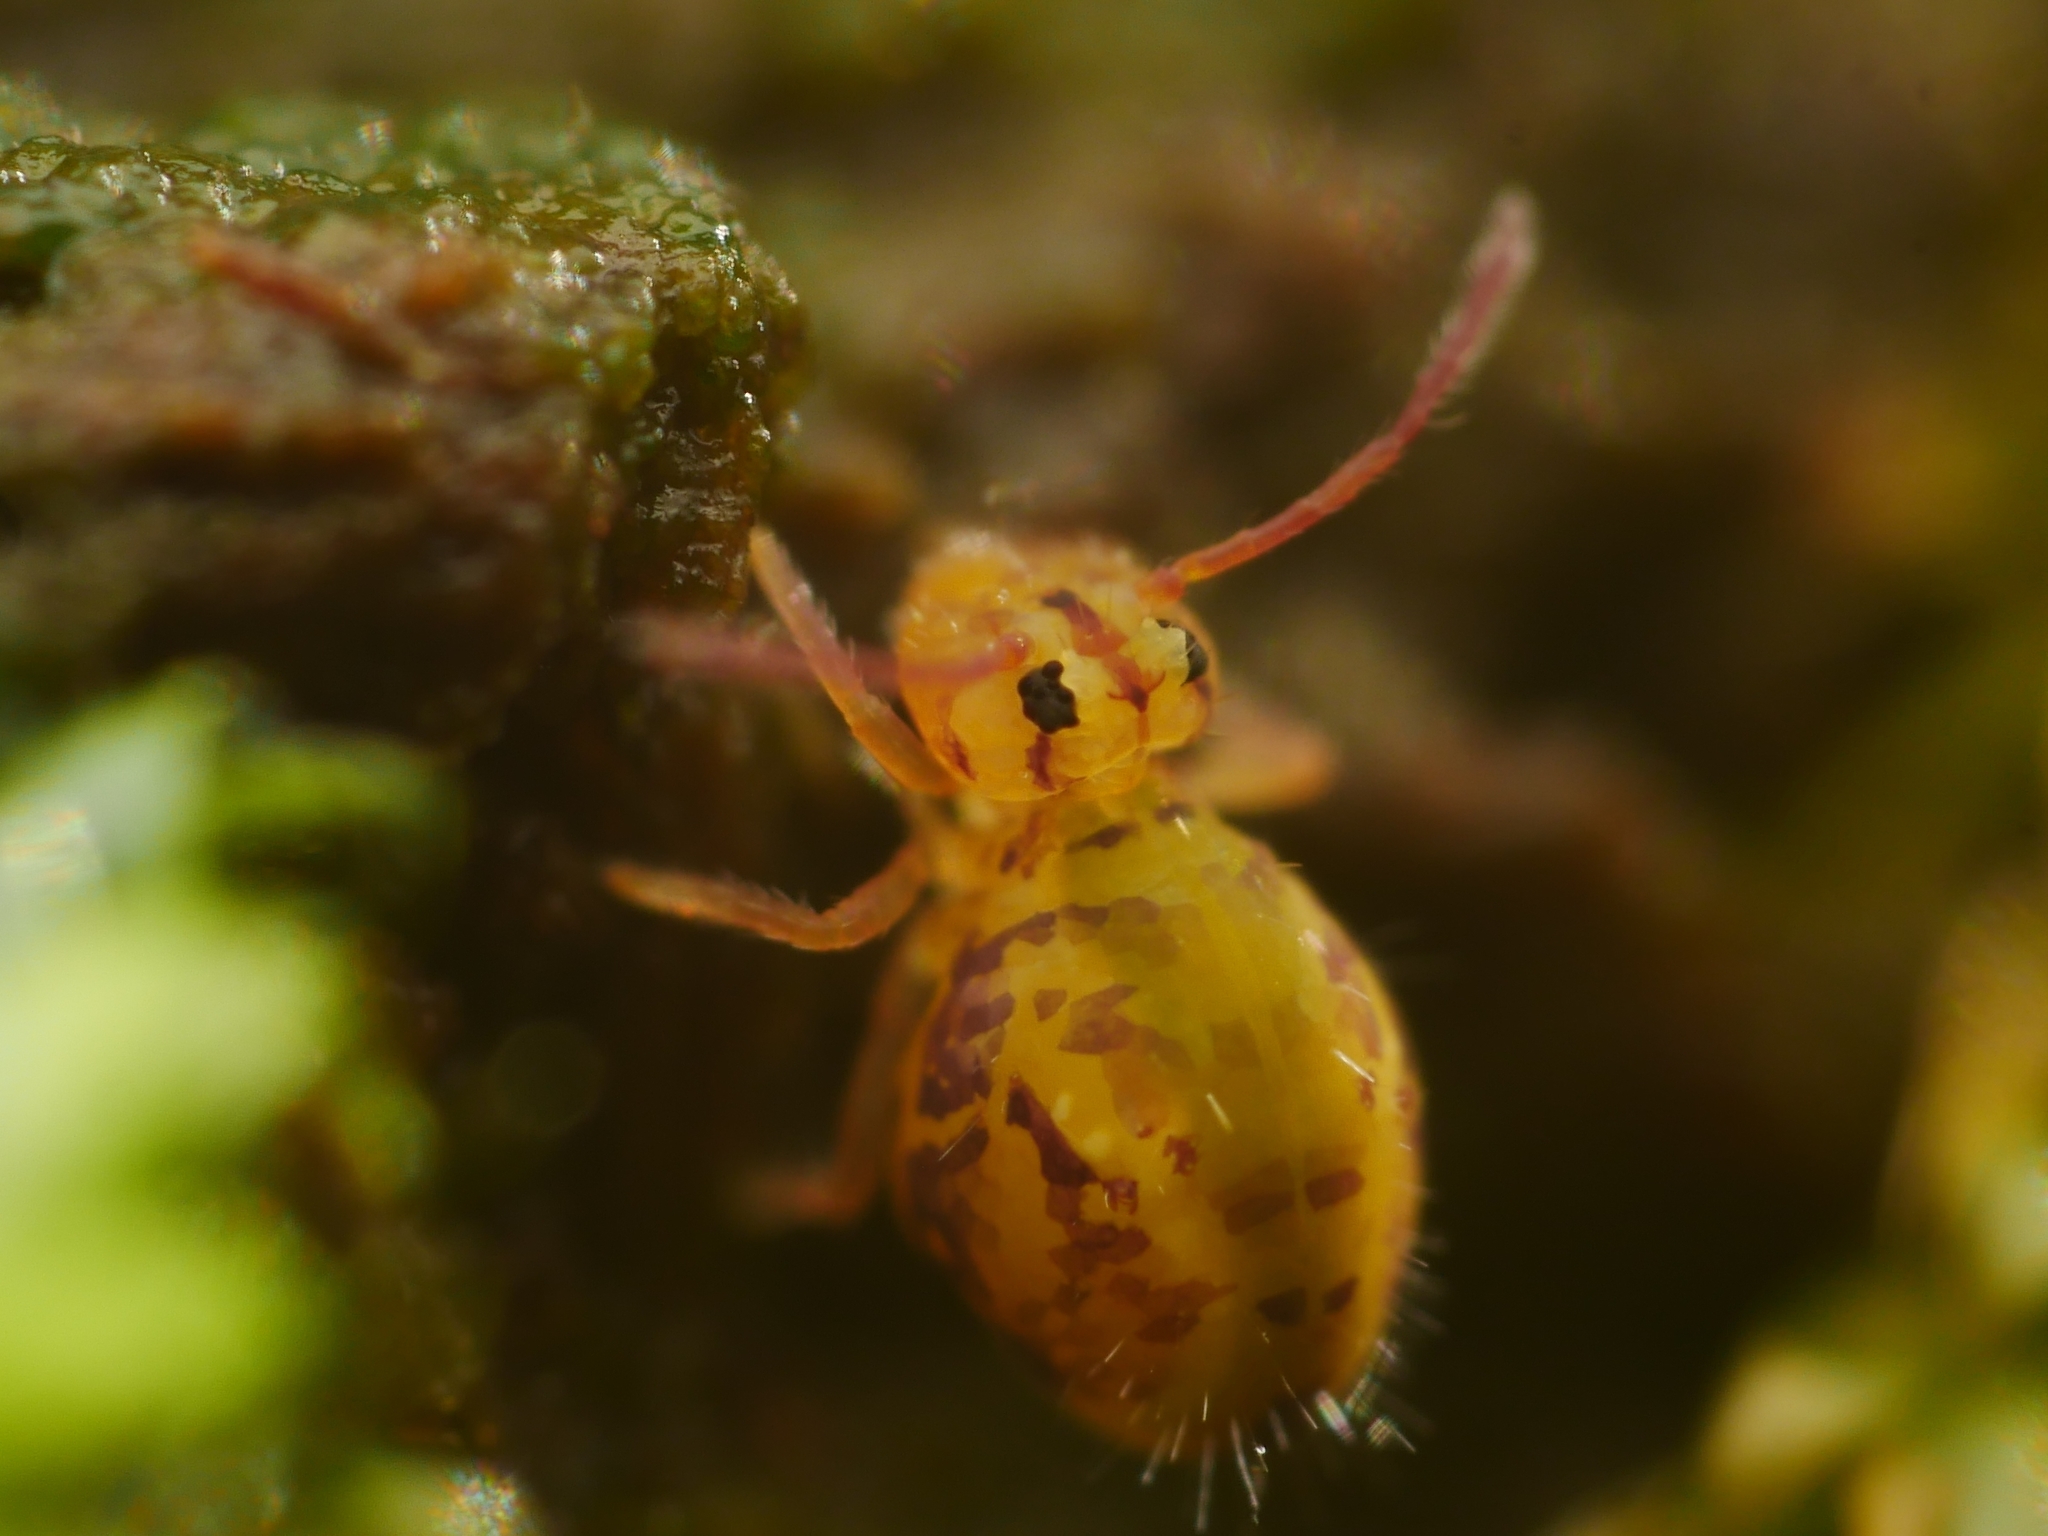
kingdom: Animalia
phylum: Arthropoda
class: Collembola
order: Symphypleona
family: Dicyrtomidae
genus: Dicyrtomina
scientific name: Dicyrtomina ornata
